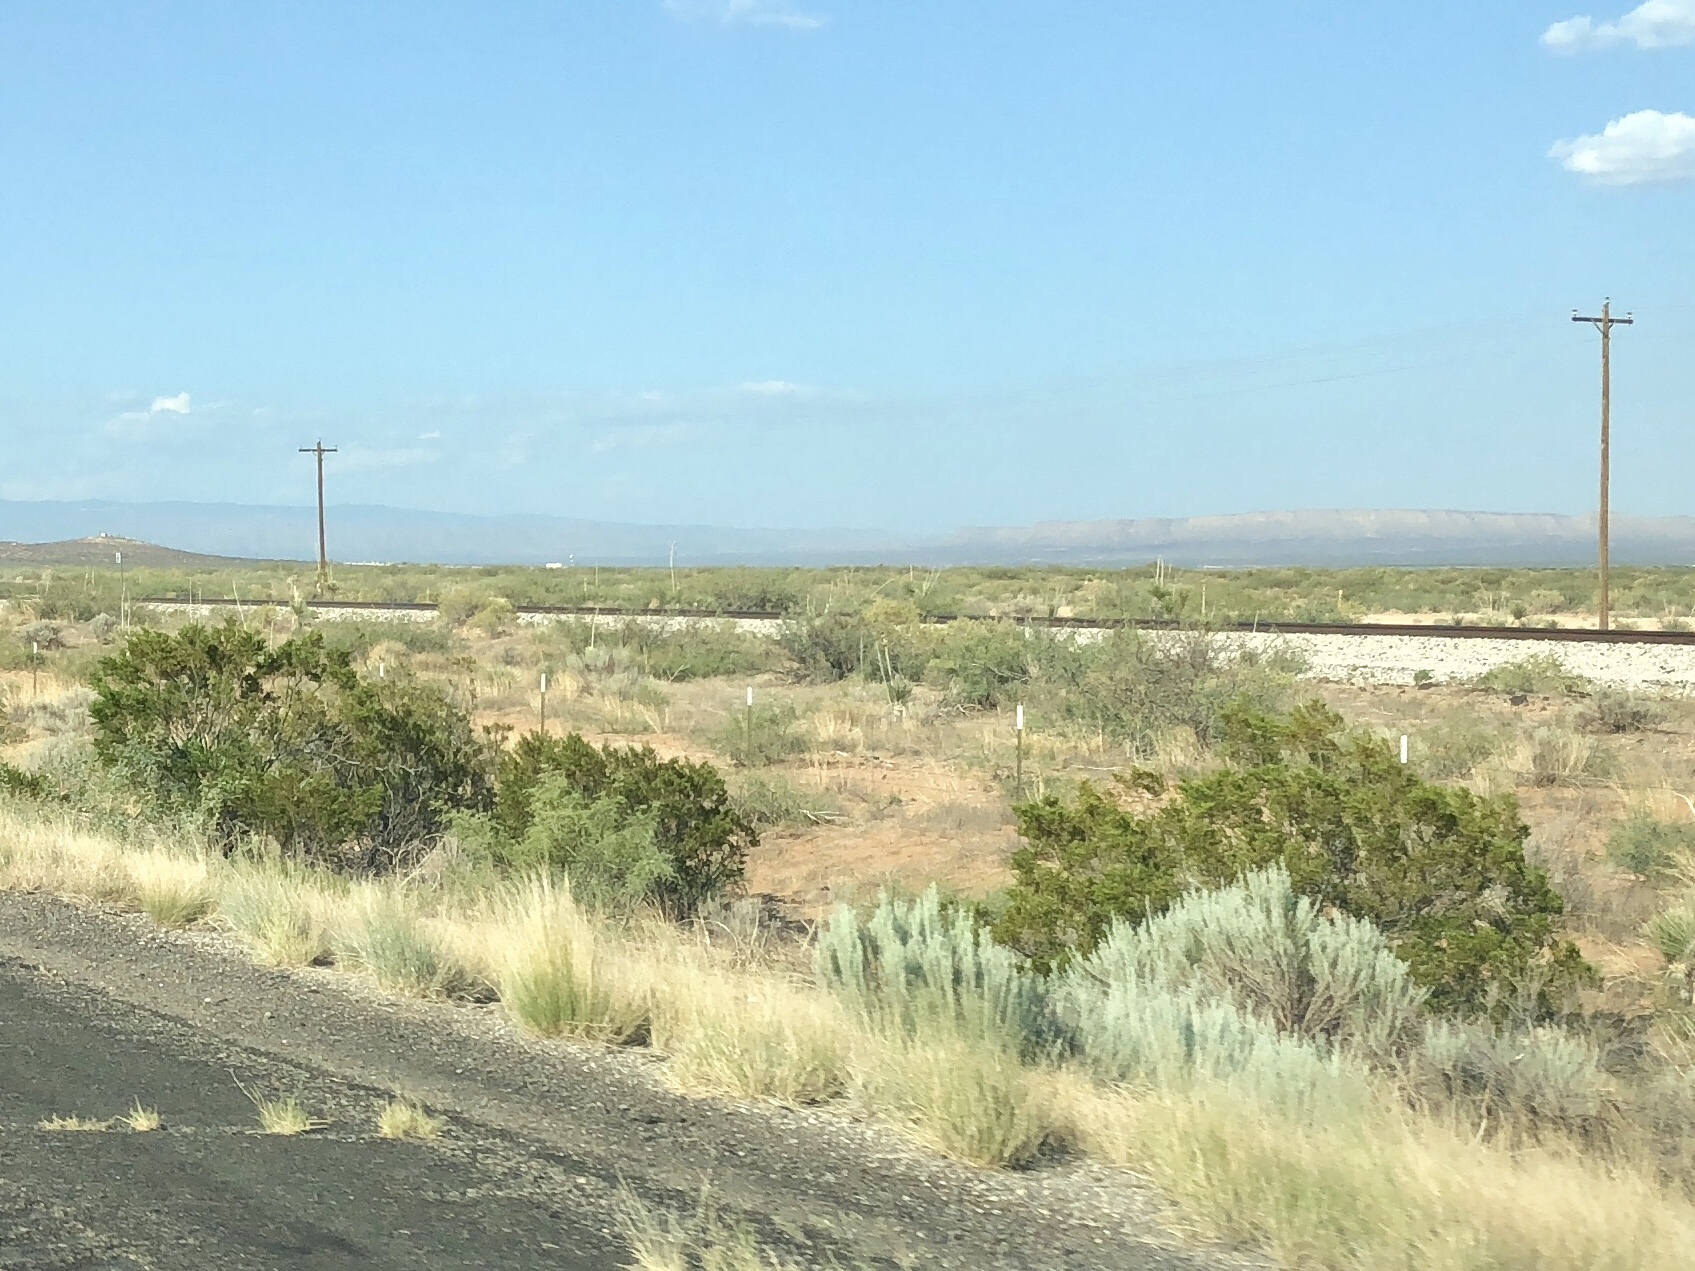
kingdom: Plantae
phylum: Tracheophyta
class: Magnoliopsida
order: Zygophyllales
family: Zygophyllaceae
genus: Larrea
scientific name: Larrea tridentata
